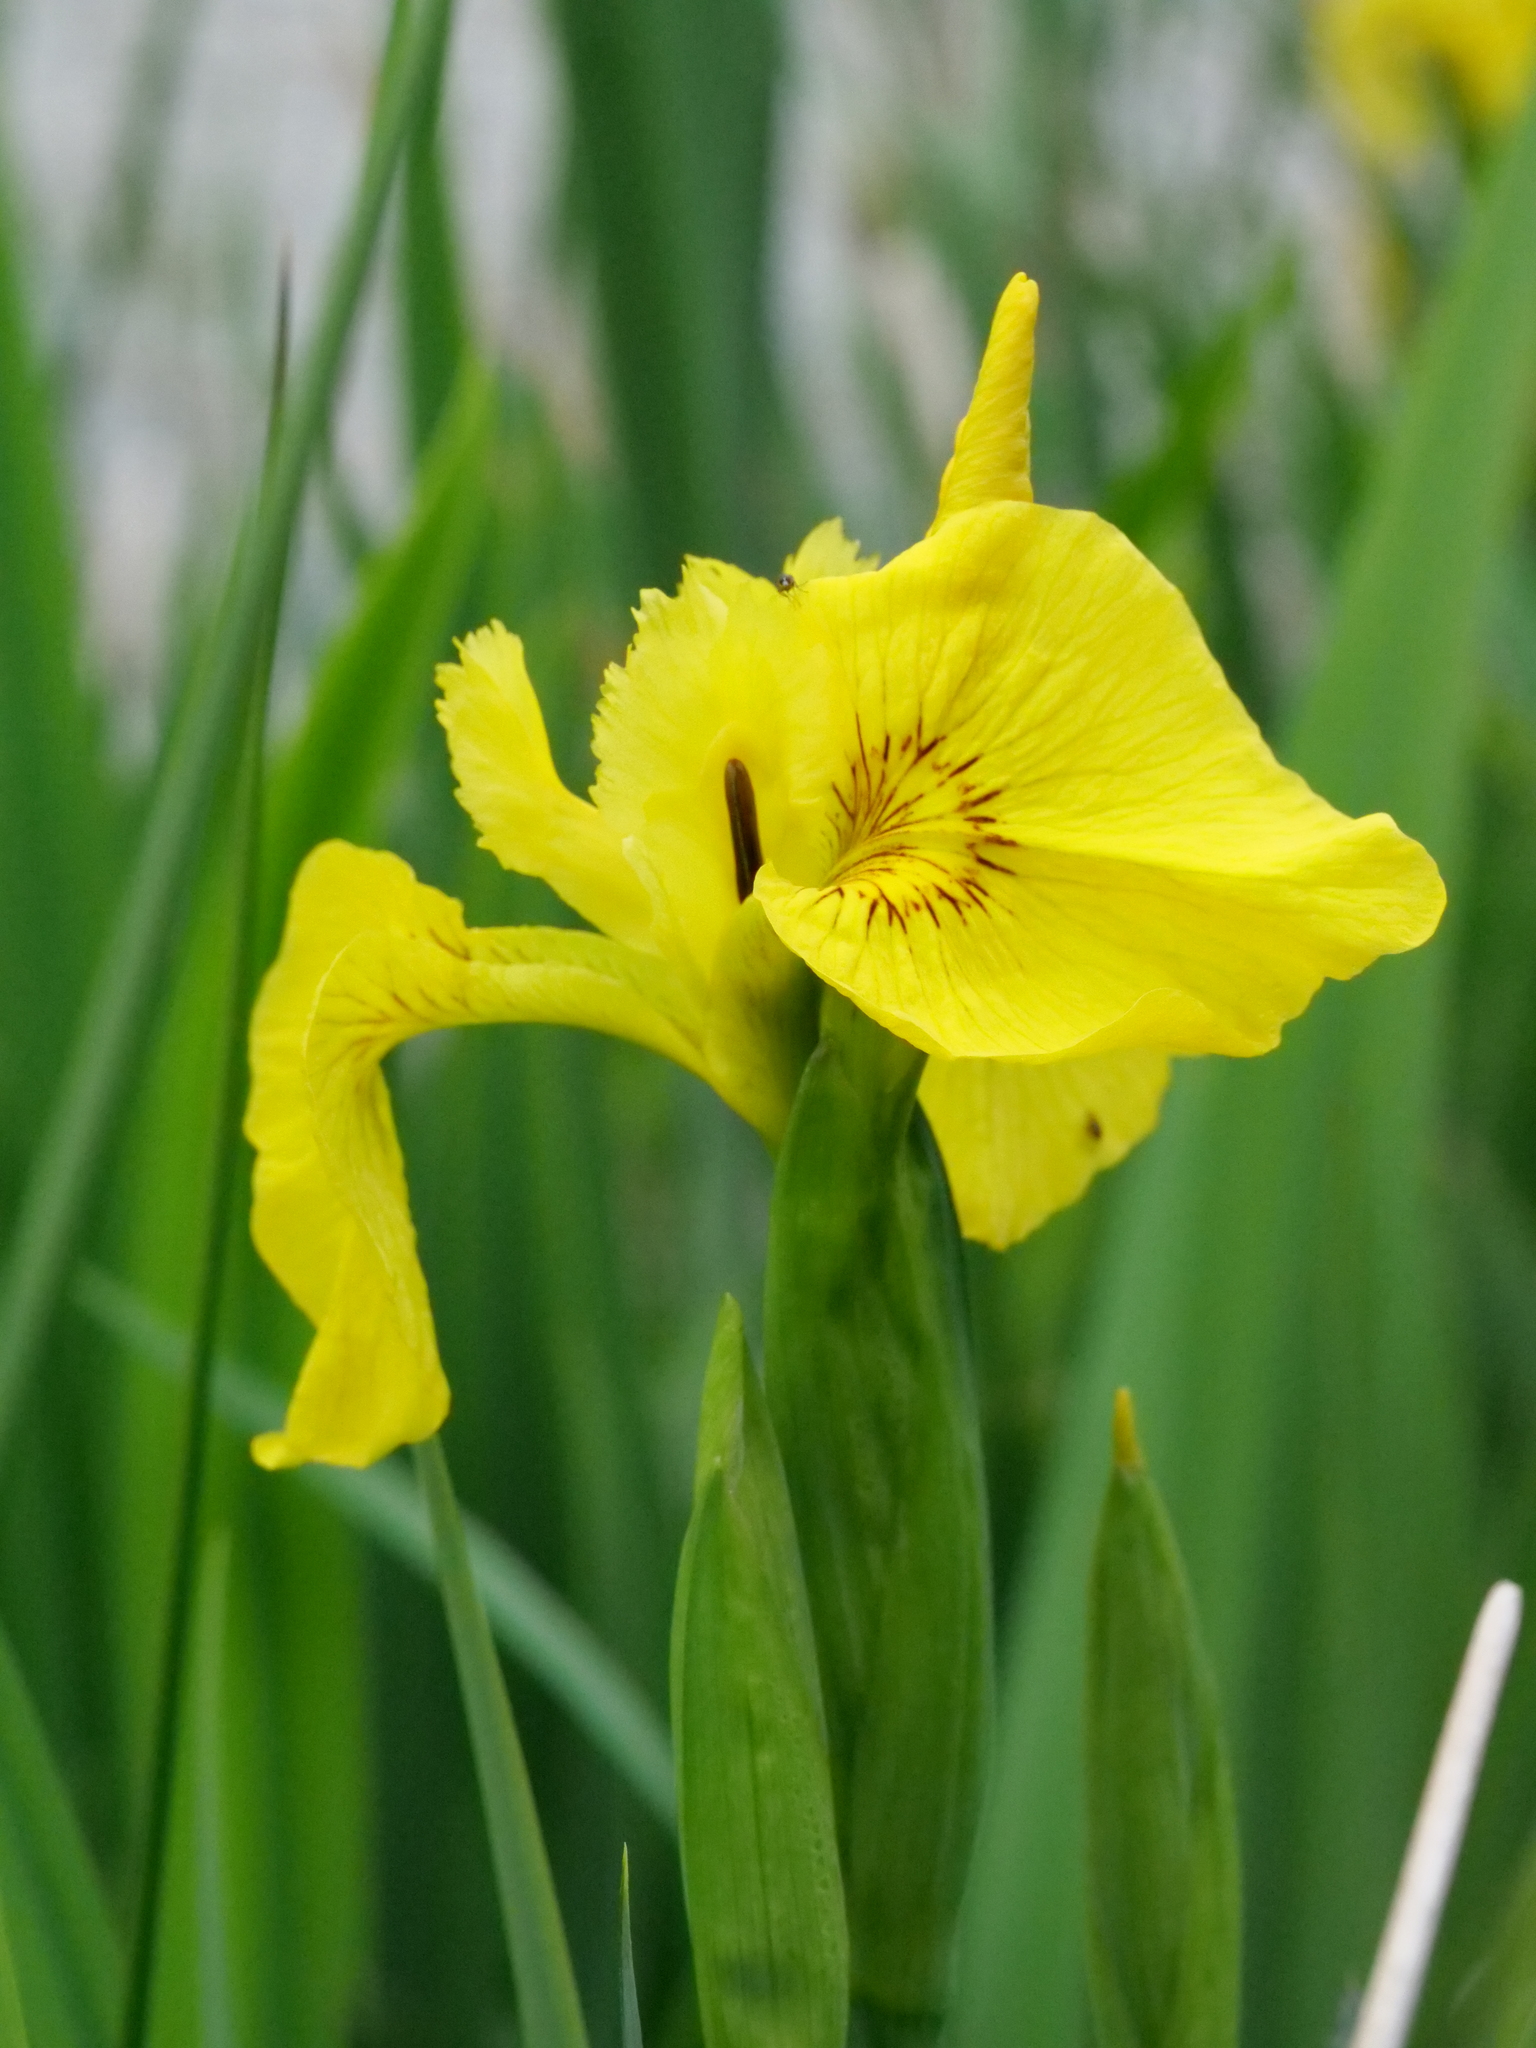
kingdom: Plantae
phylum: Tracheophyta
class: Liliopsida
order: Asparagales
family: Iridaceae
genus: Iris
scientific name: Iris pseudacorus
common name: Yellow flag
